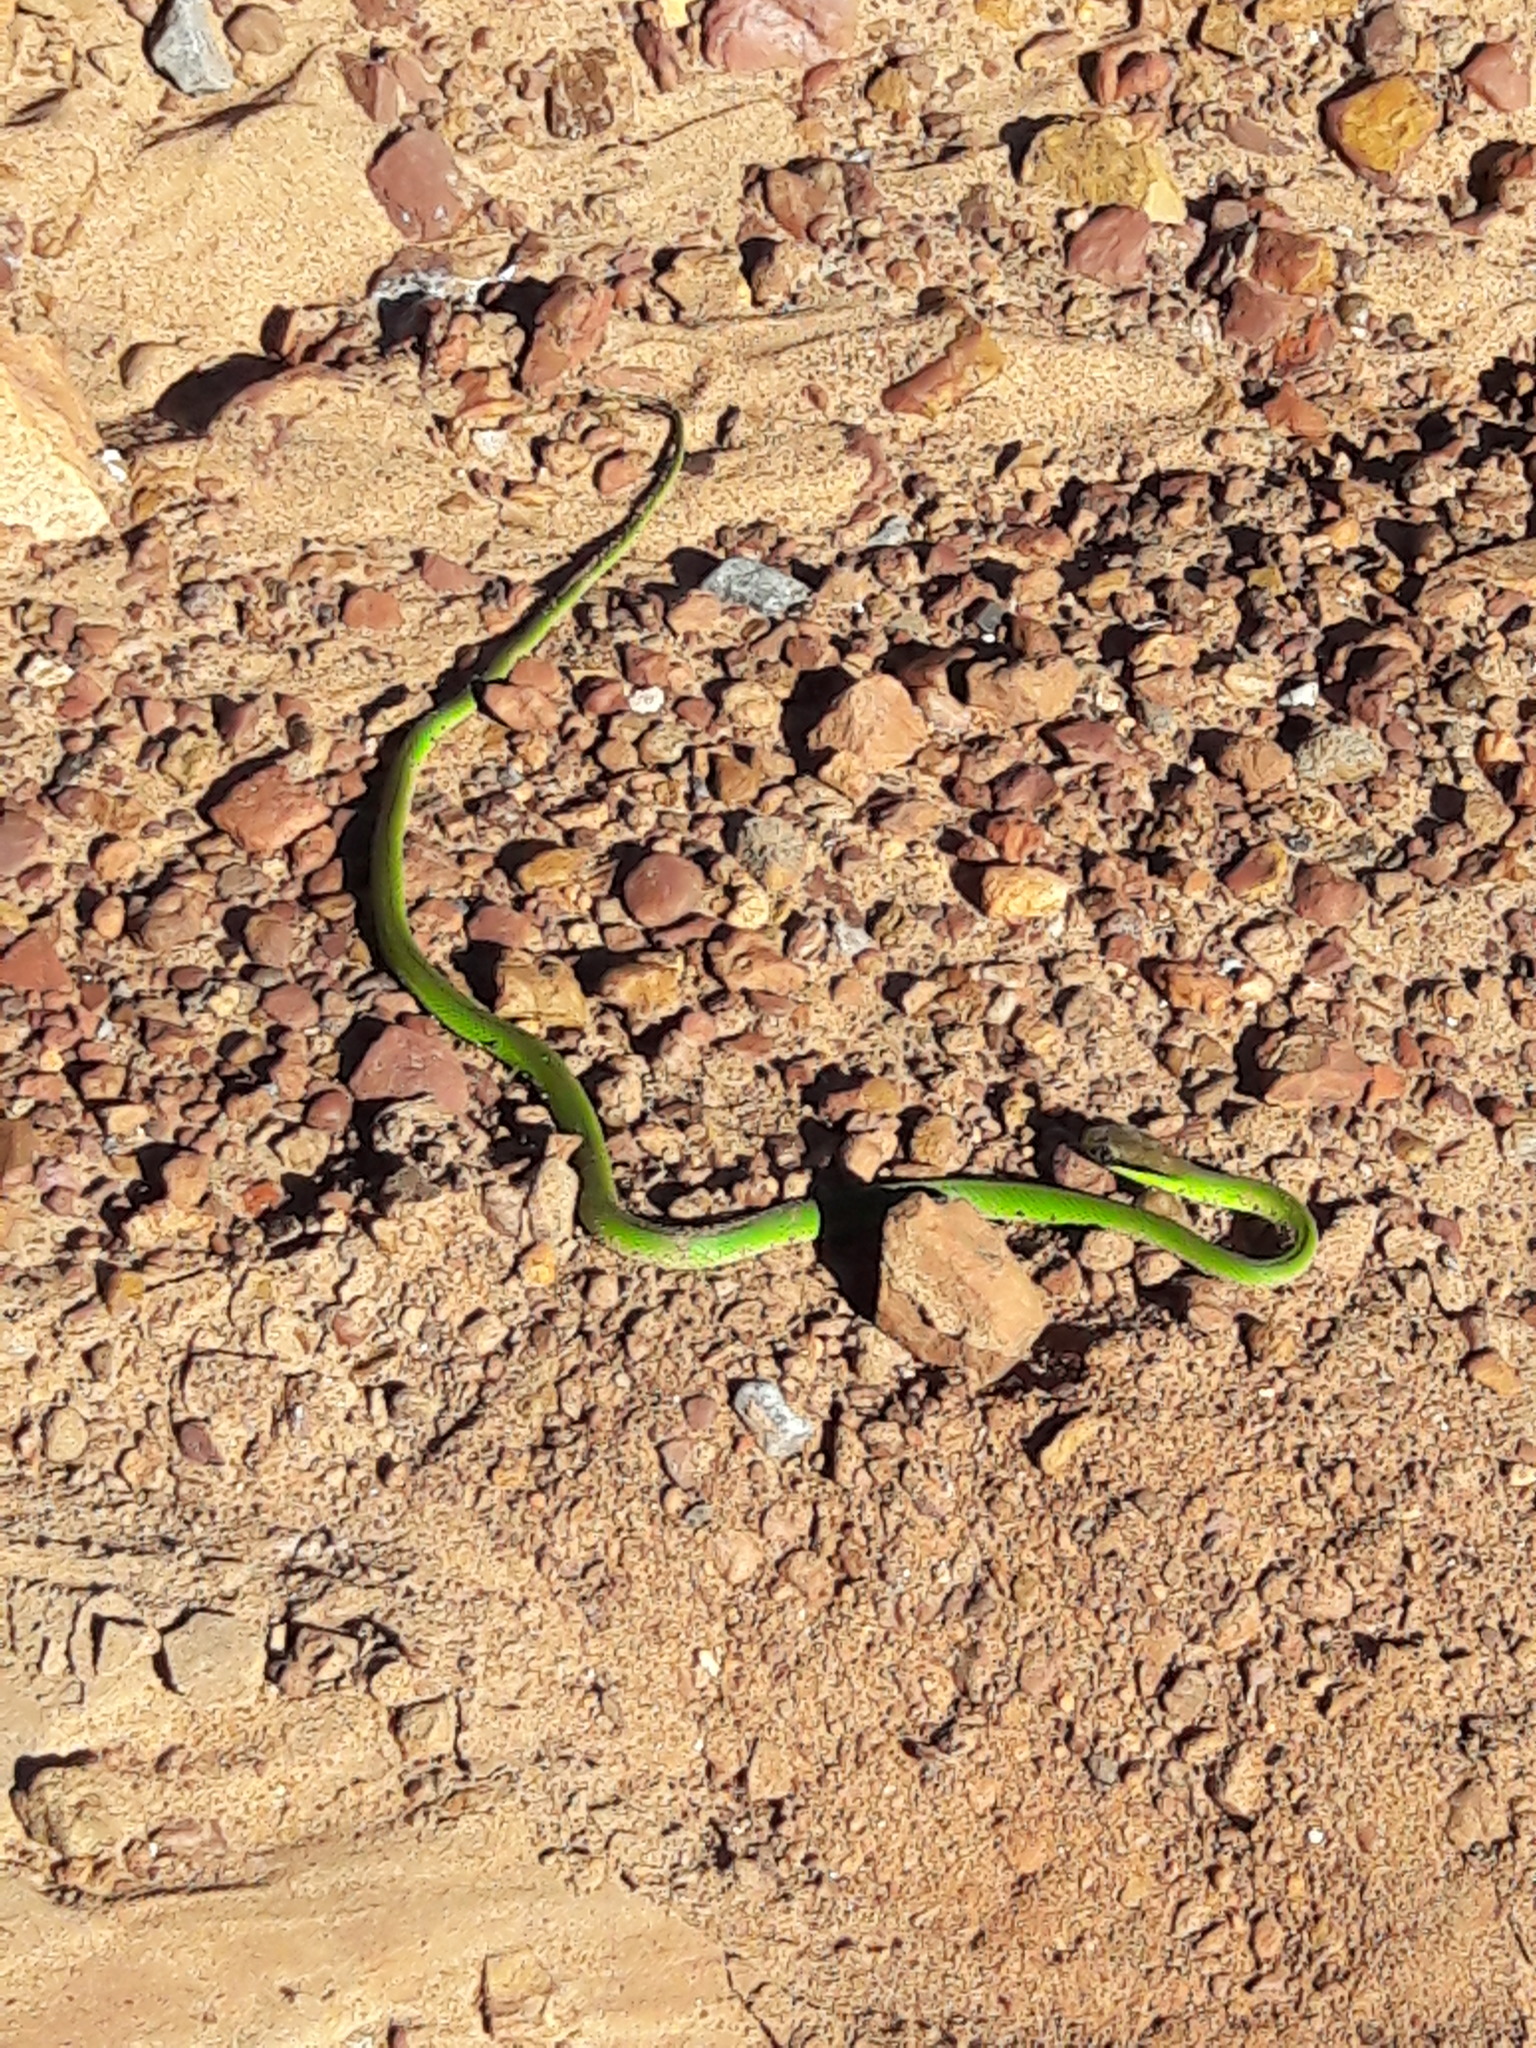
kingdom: Animalia
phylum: Chordata
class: Squamata
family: Colubridae
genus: Philodryas
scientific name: Philodryas olfersii
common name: Lichtenstein's green racer
